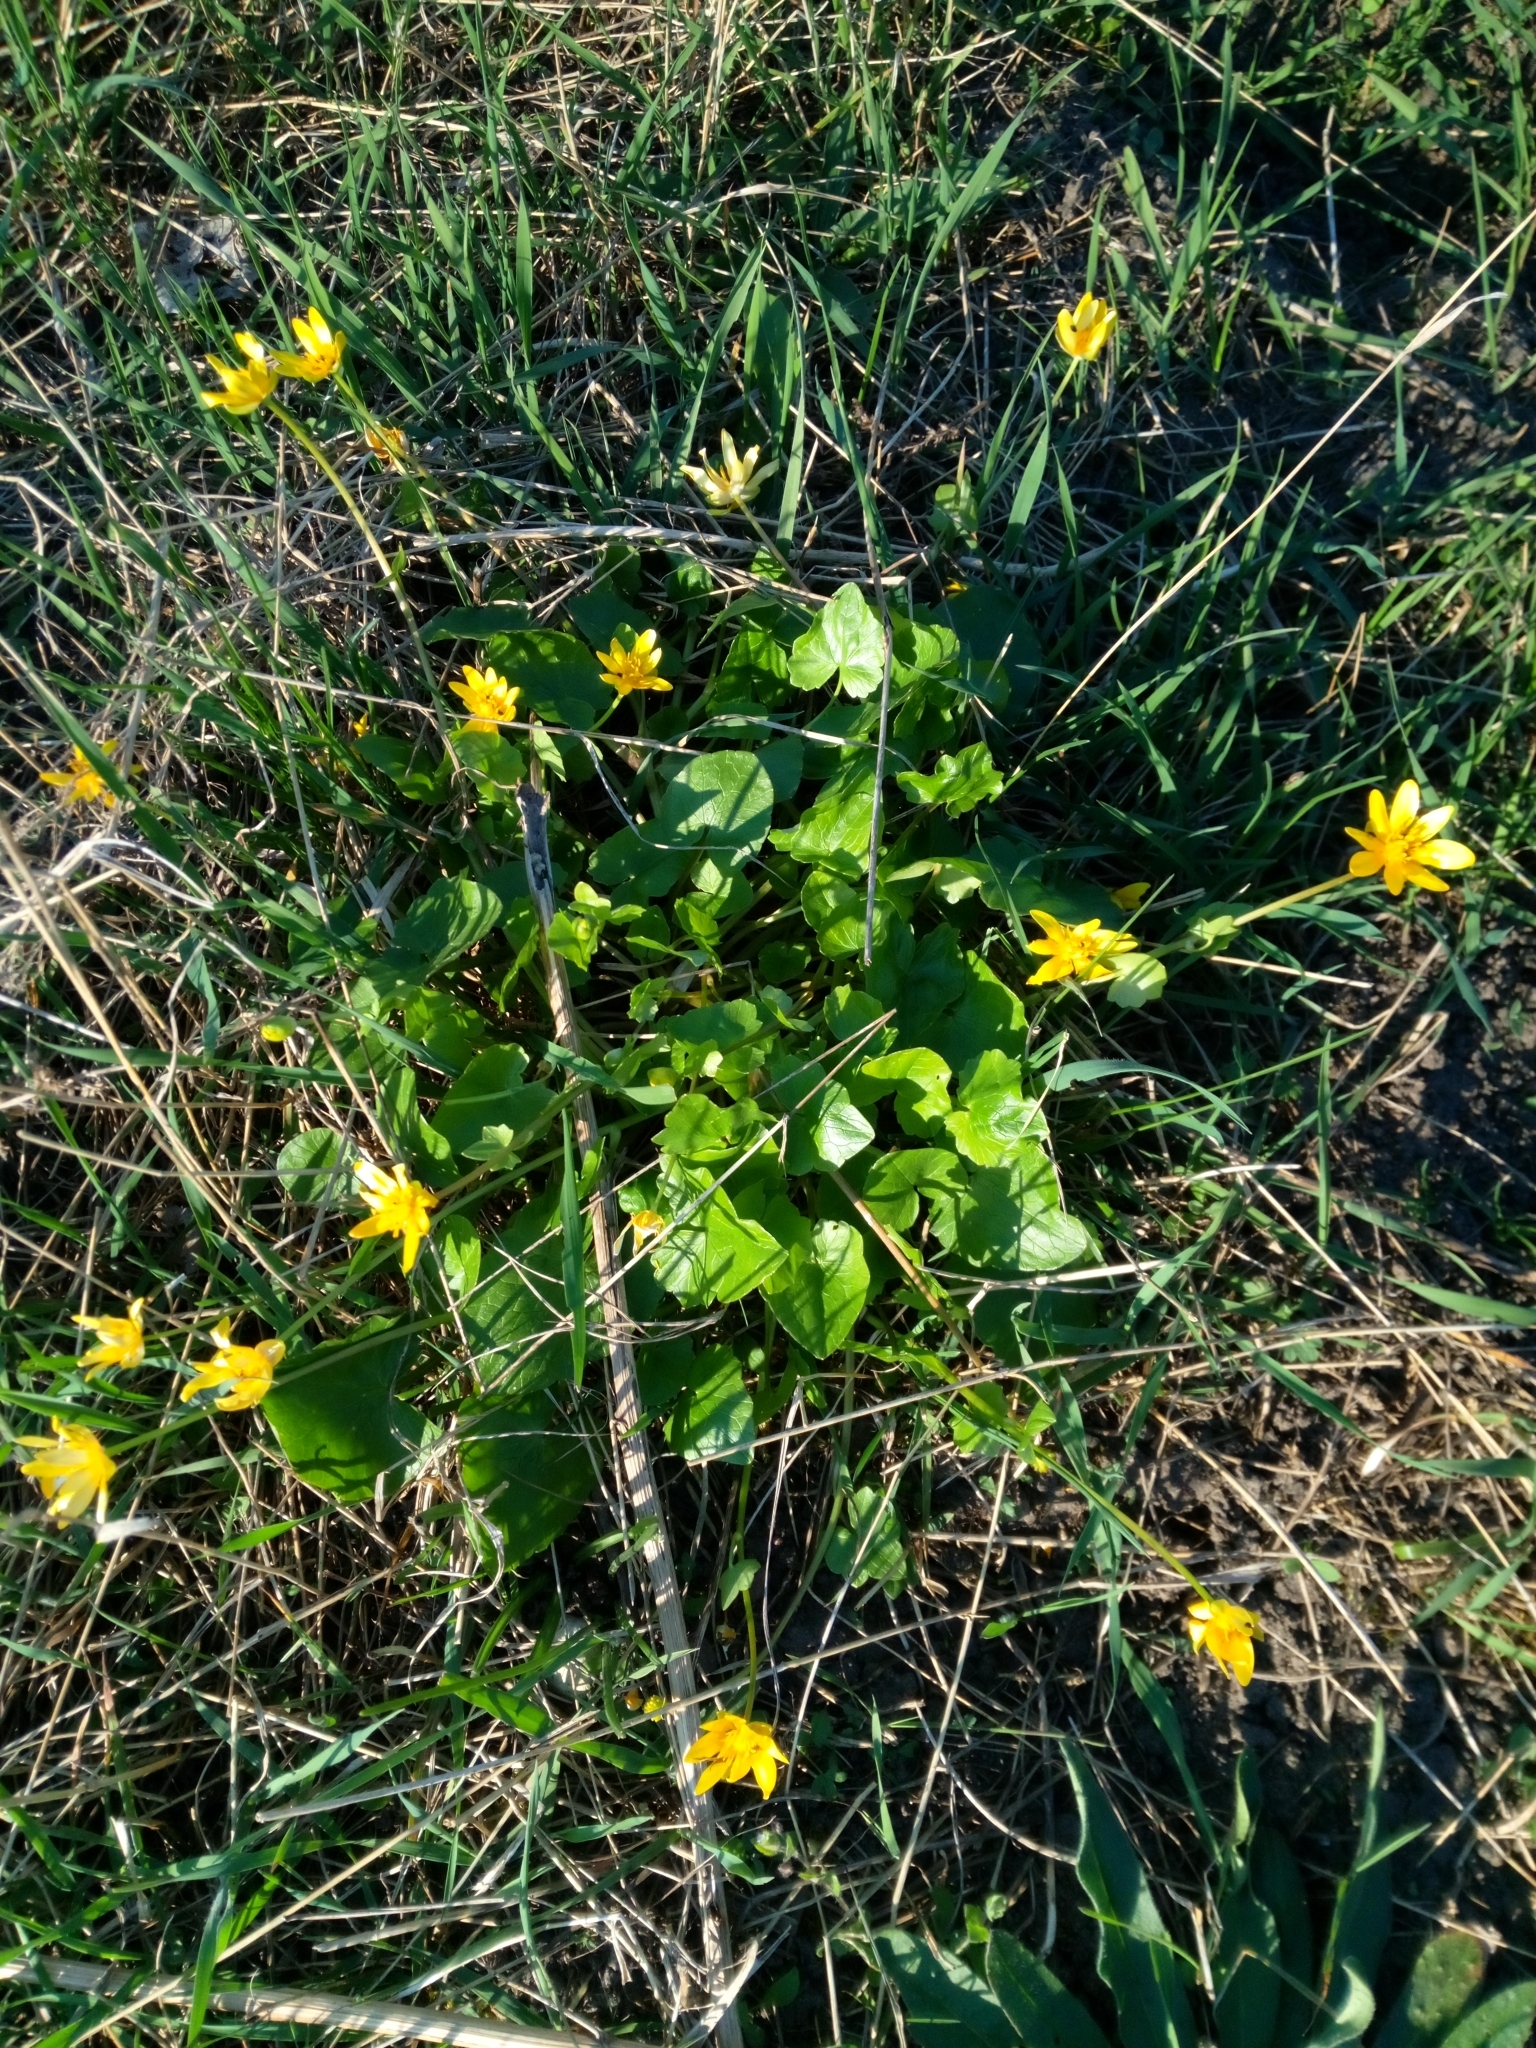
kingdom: Plantae
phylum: Tracheophyta
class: Magnoliopsida
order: Ranunculales
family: Ranunculaceae
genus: Ficaria
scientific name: Ficaria verna
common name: Lesser celandine
